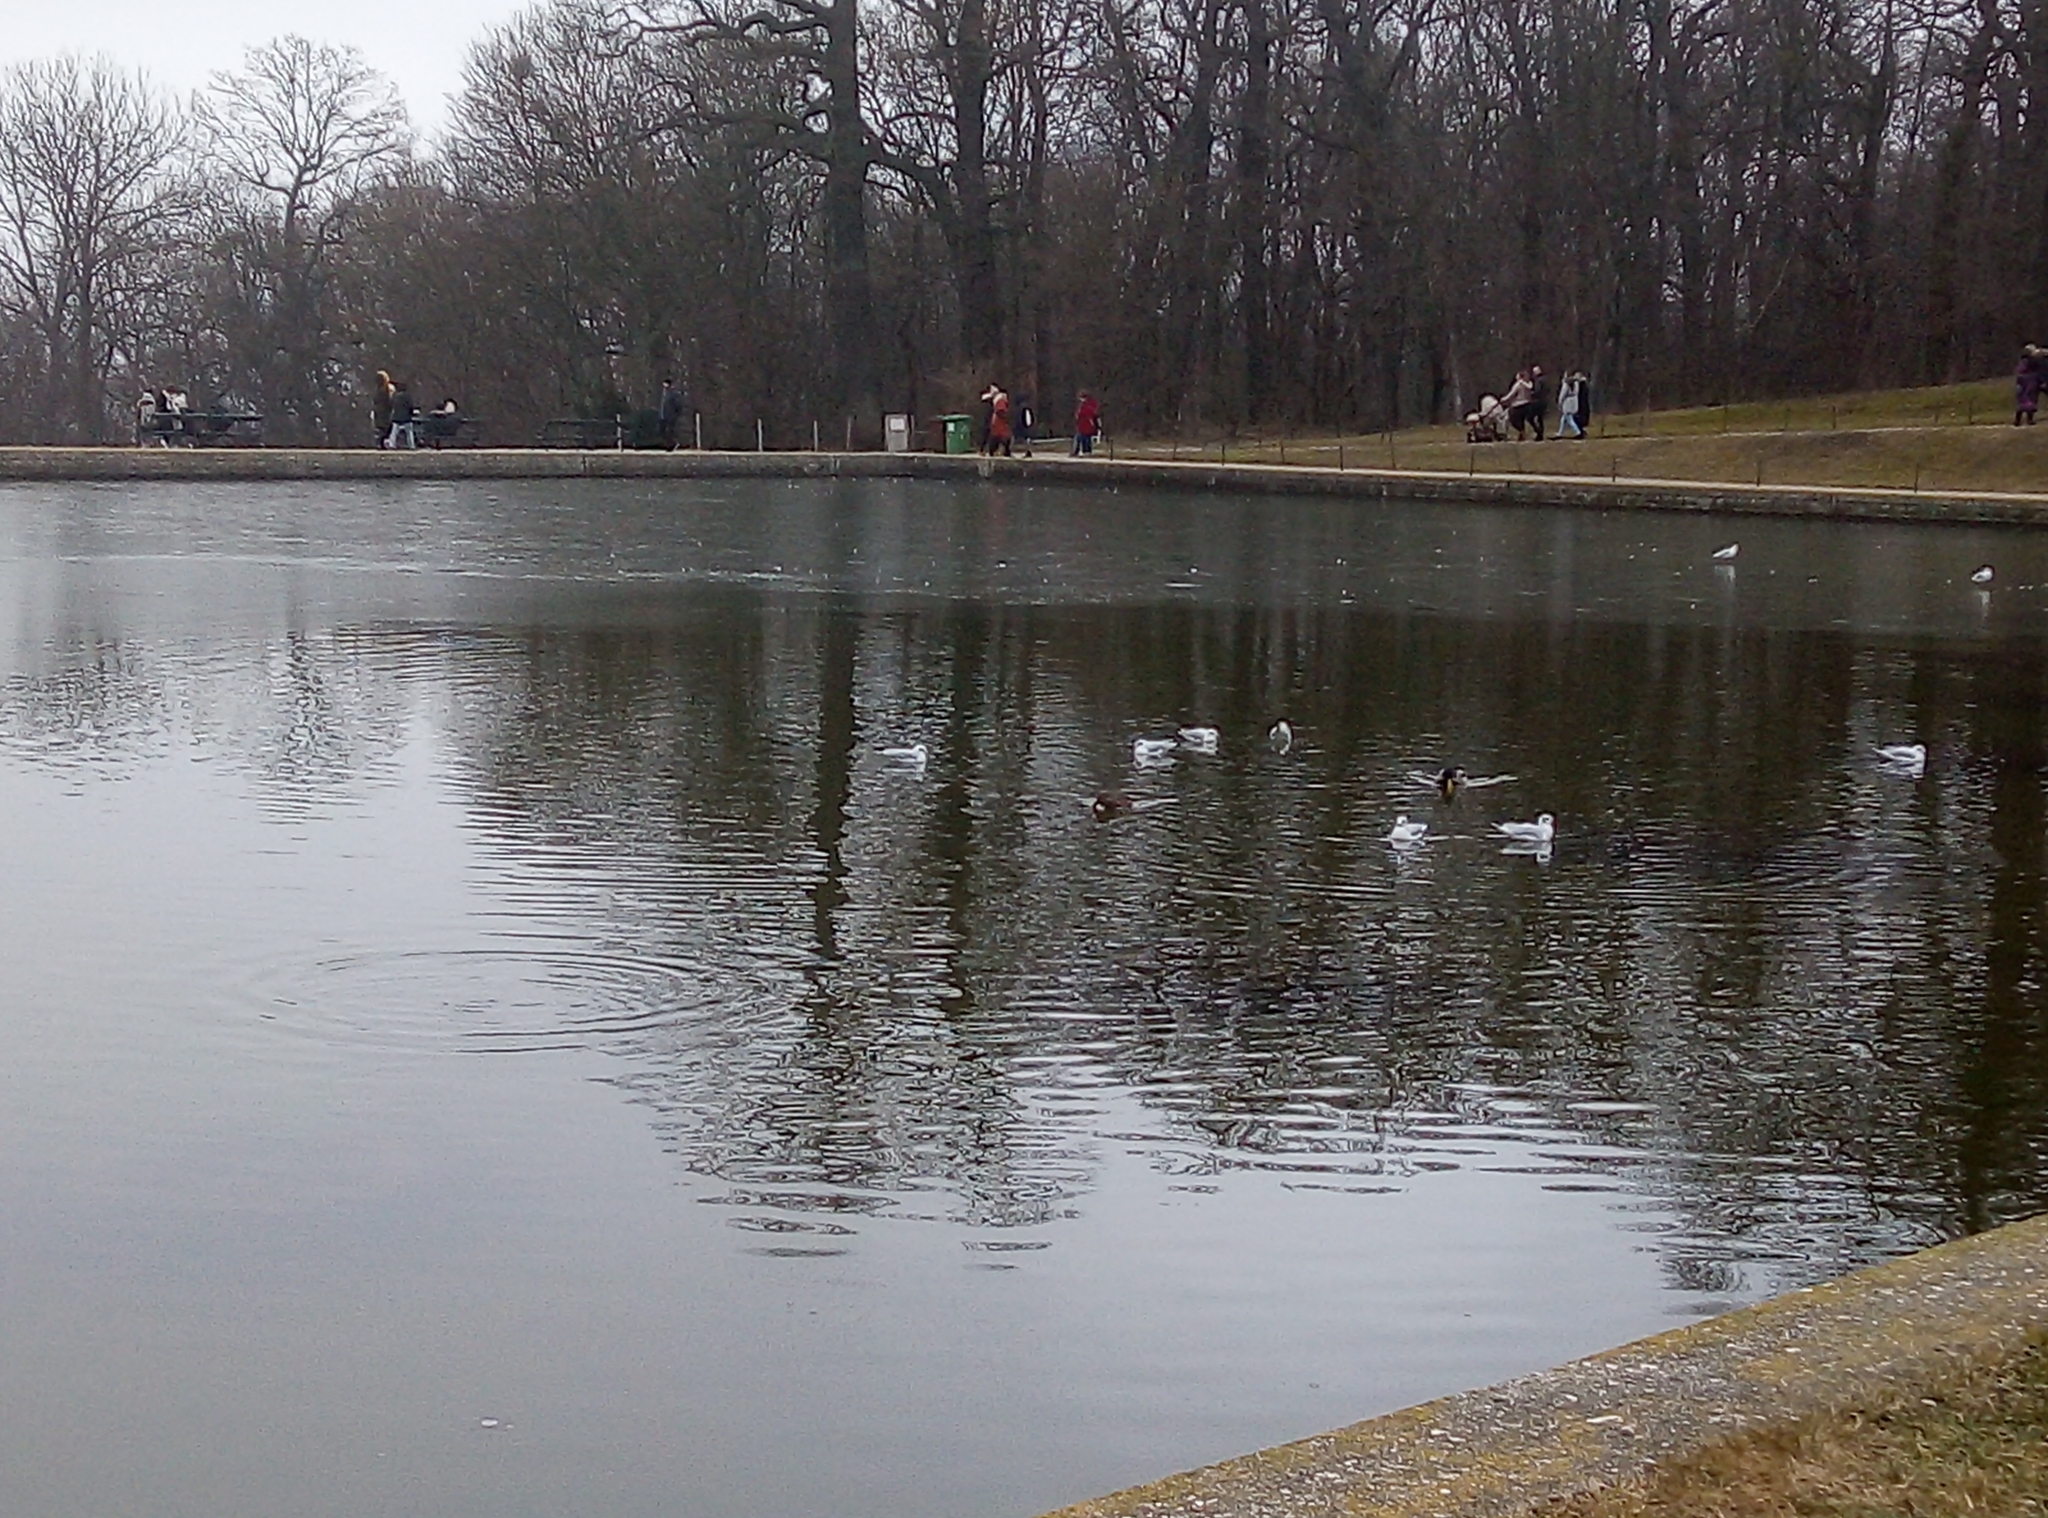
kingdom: Animalia
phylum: Chordata
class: Aves
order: Charadriiformes
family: Laridae
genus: Chroicocephalus
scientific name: Chroicocephalus ridibundus
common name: Black-headed gull
